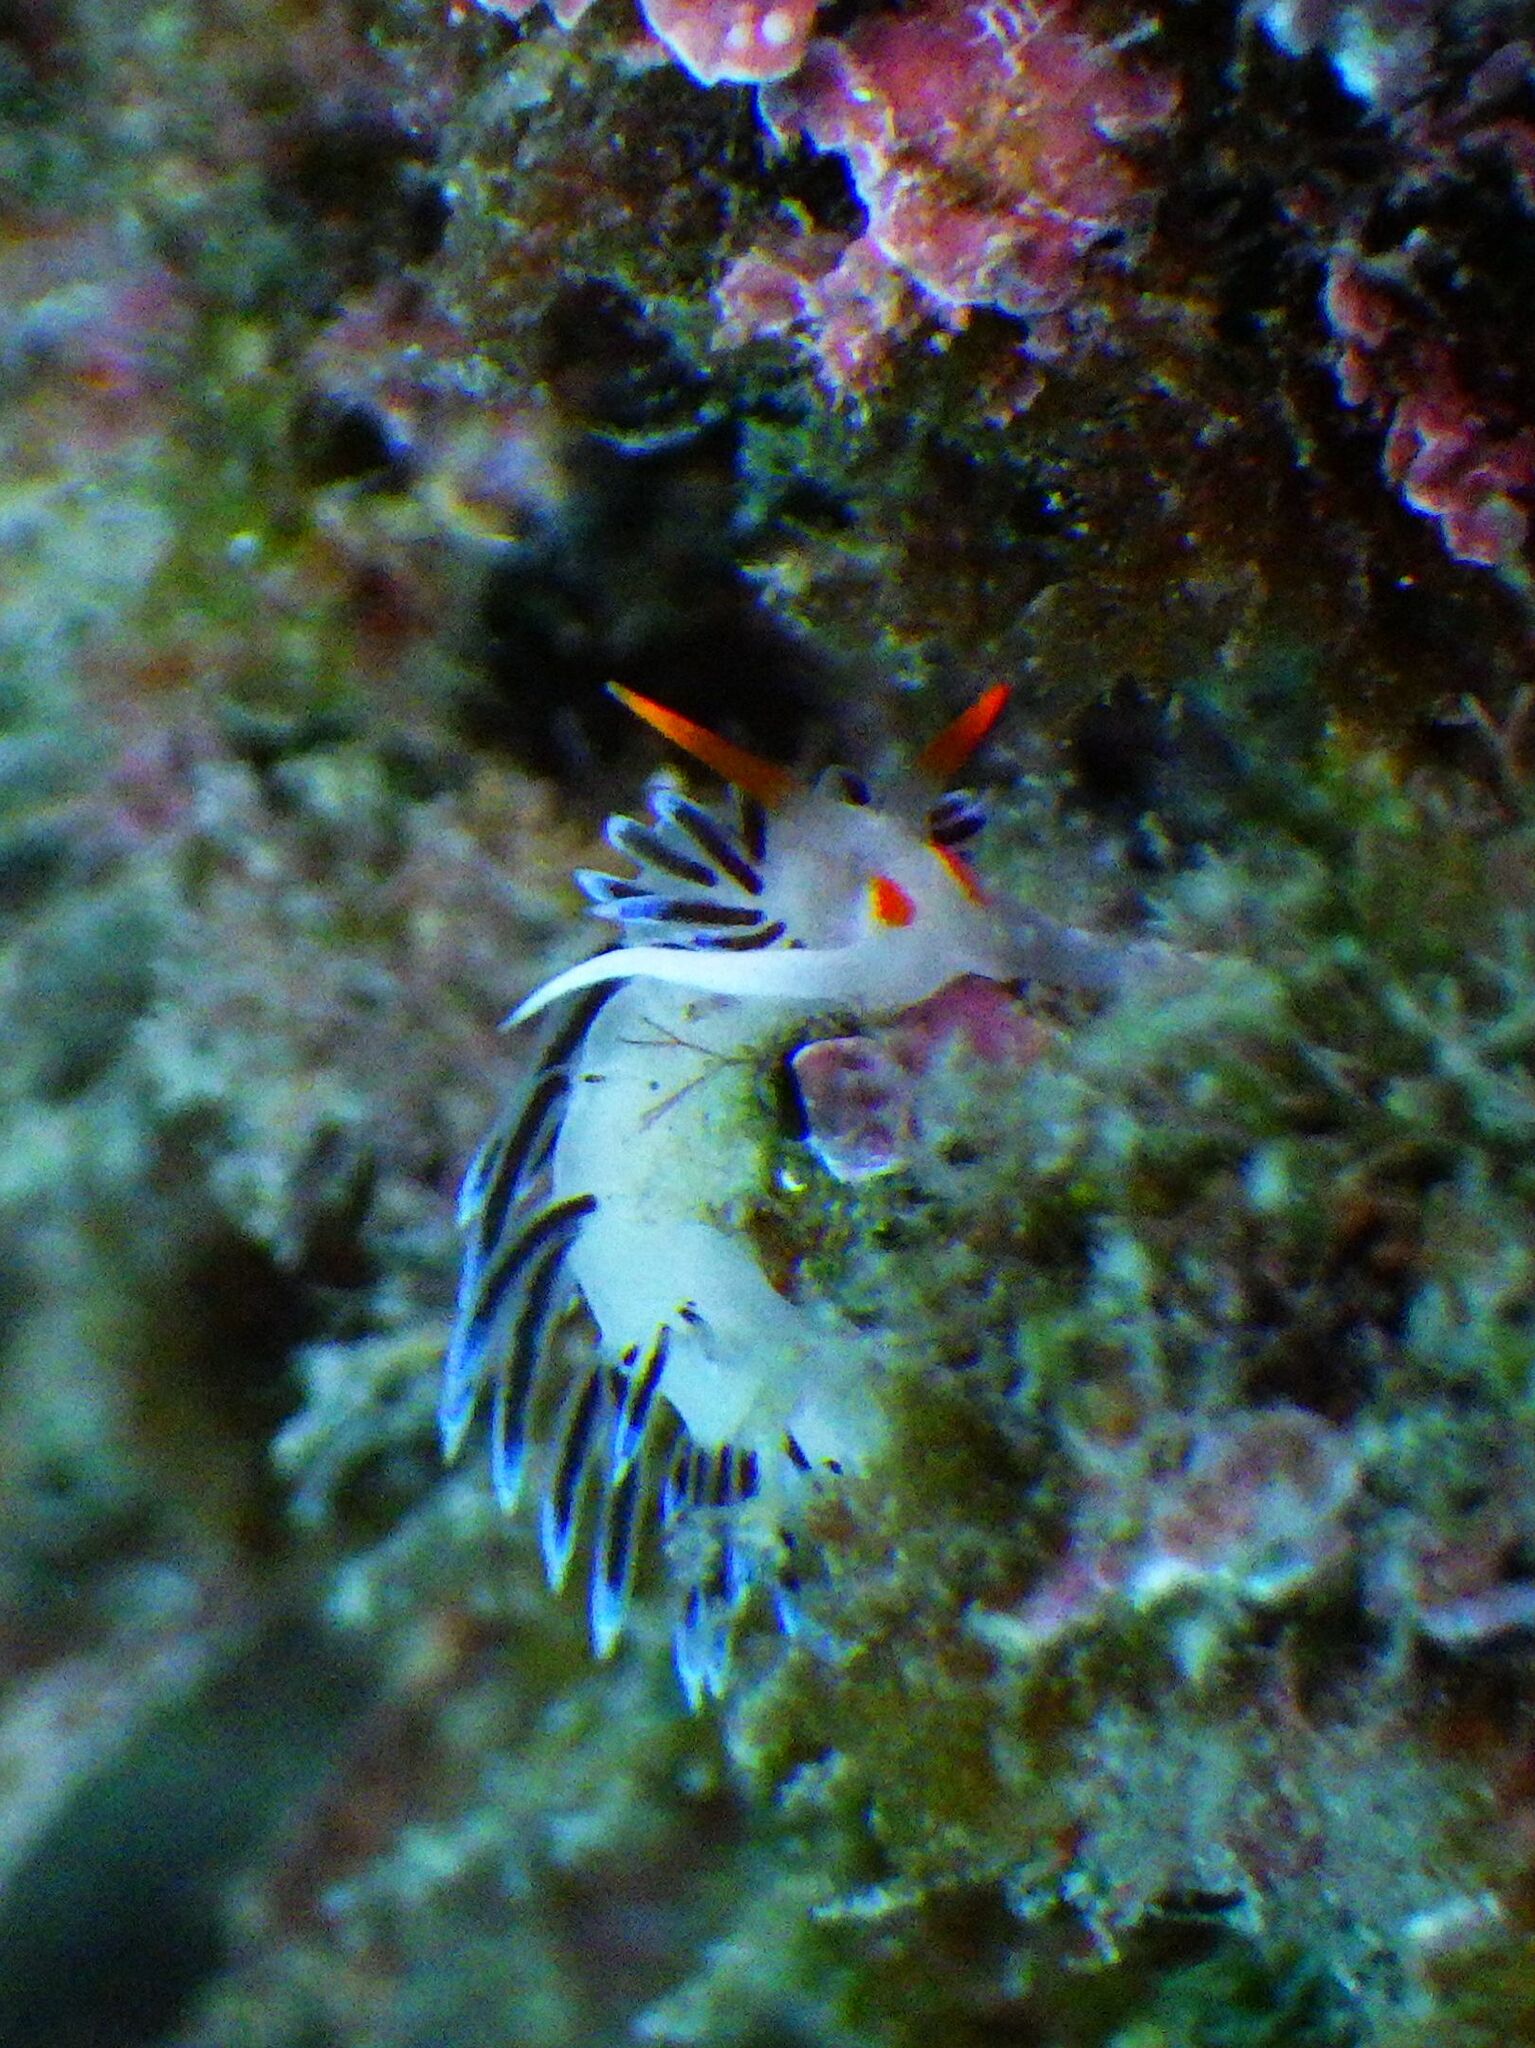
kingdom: Animalia
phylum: Mollusca
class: Gastropoda
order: Nudibranchia
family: Facelinidae
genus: Cratena
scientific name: Cratena peregrina
